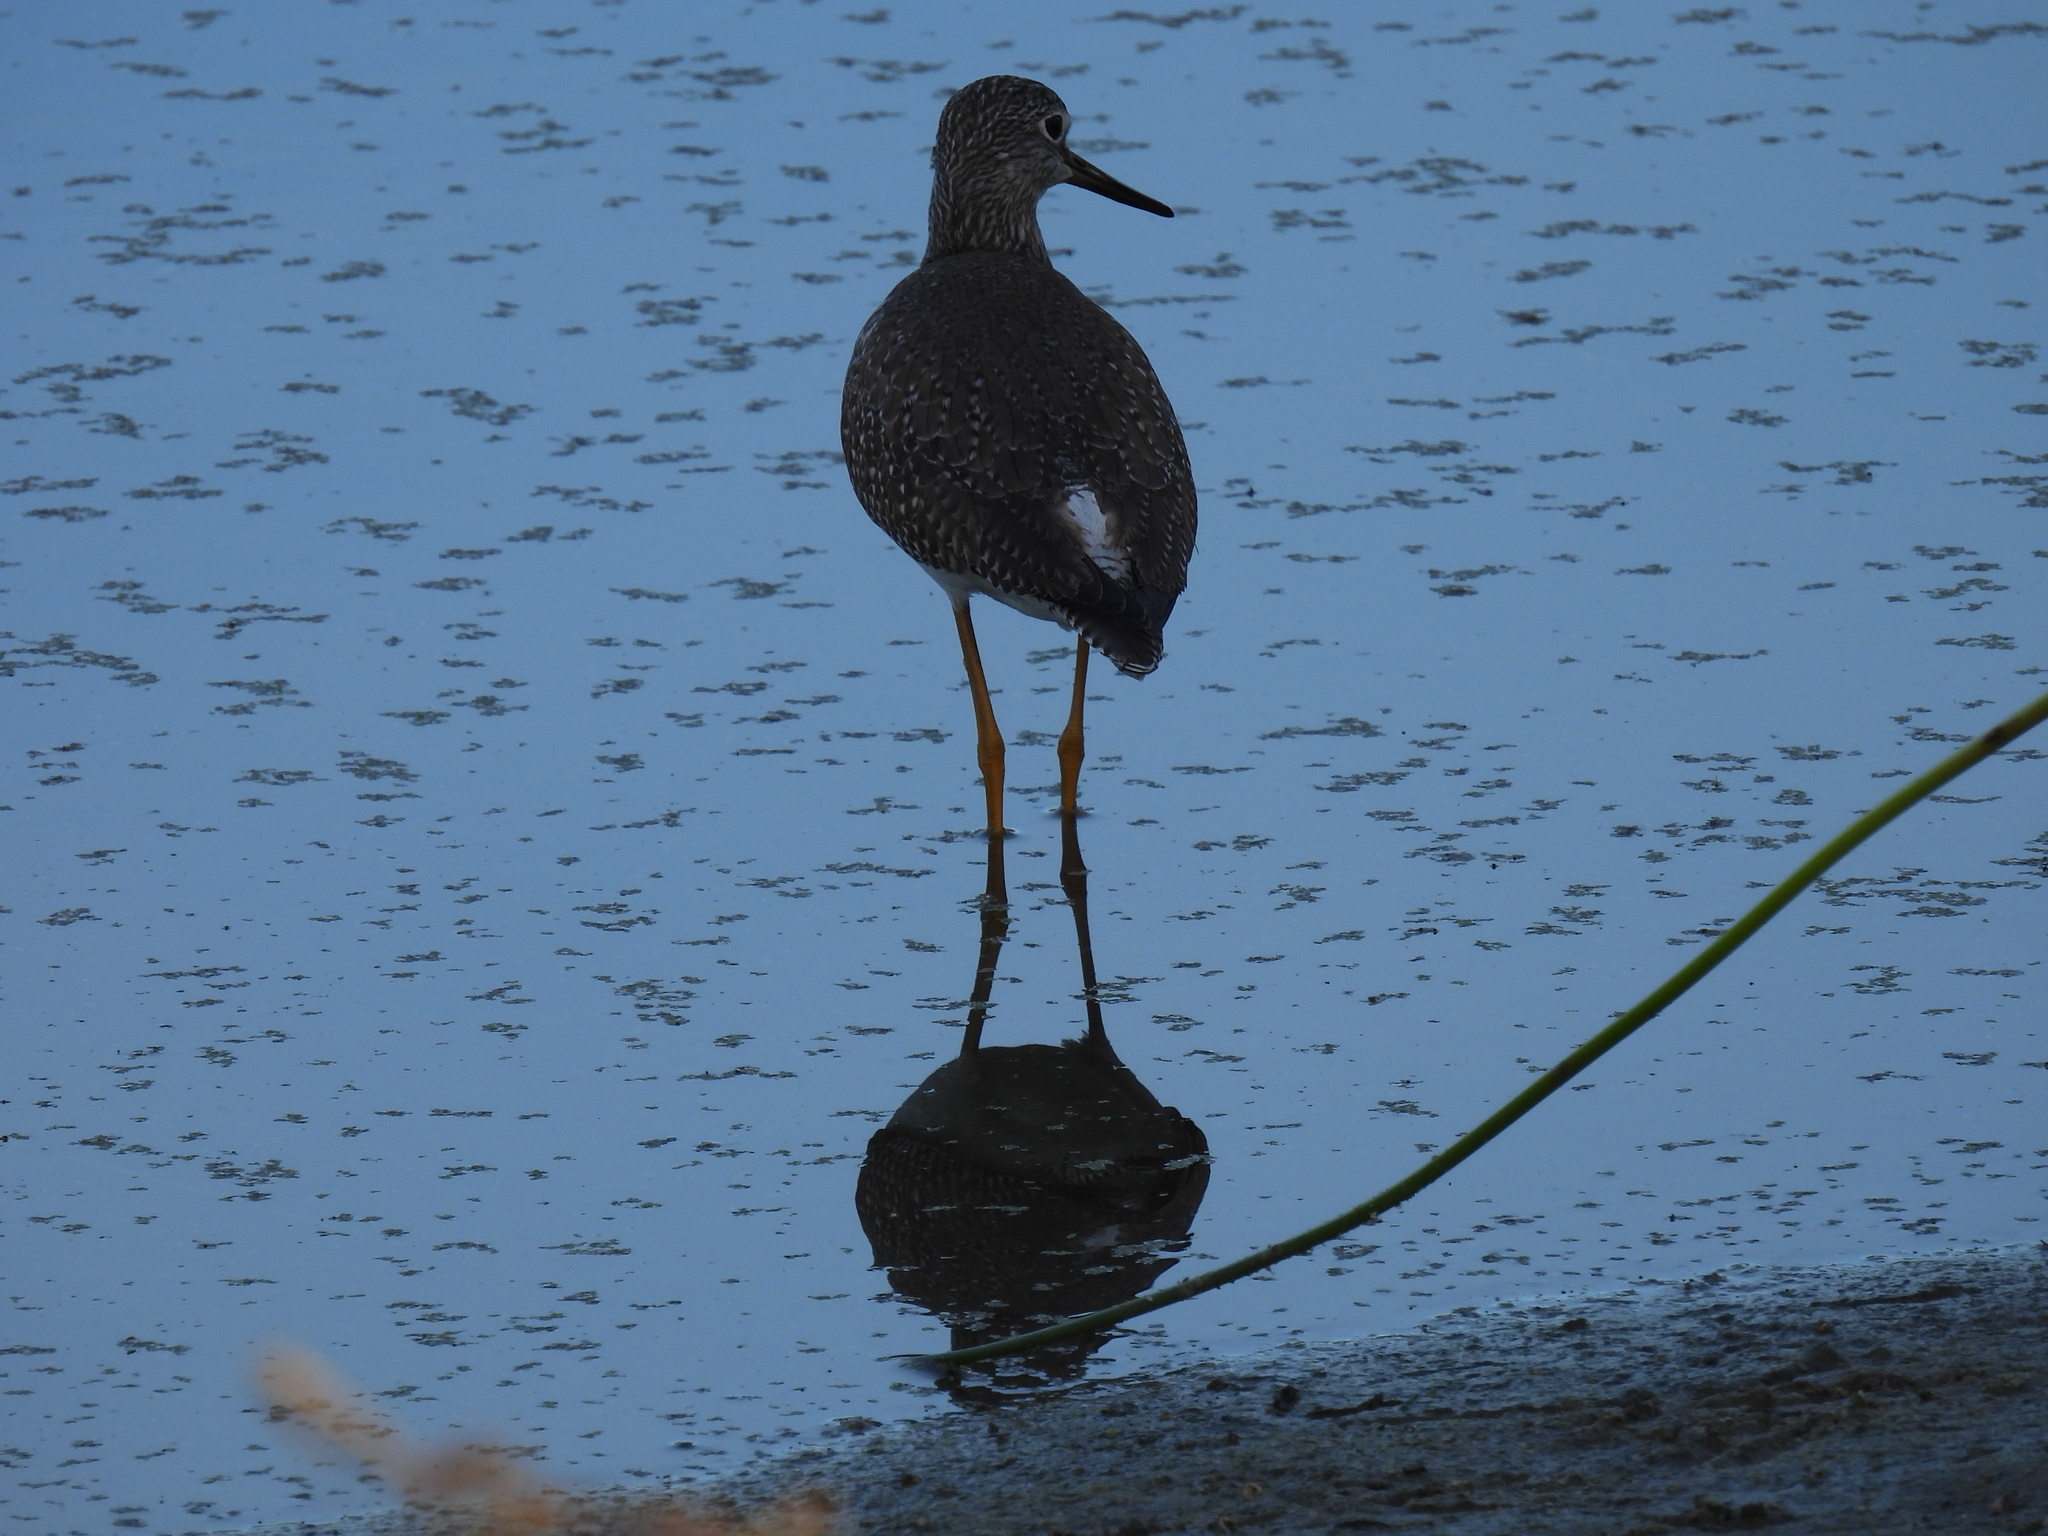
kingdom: Animalia
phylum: Chordata
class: Aves
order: Charadriiformes
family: Scolopacidae
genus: Tringa
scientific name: Tringa melanoleuca
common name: Greater yellowlegs
